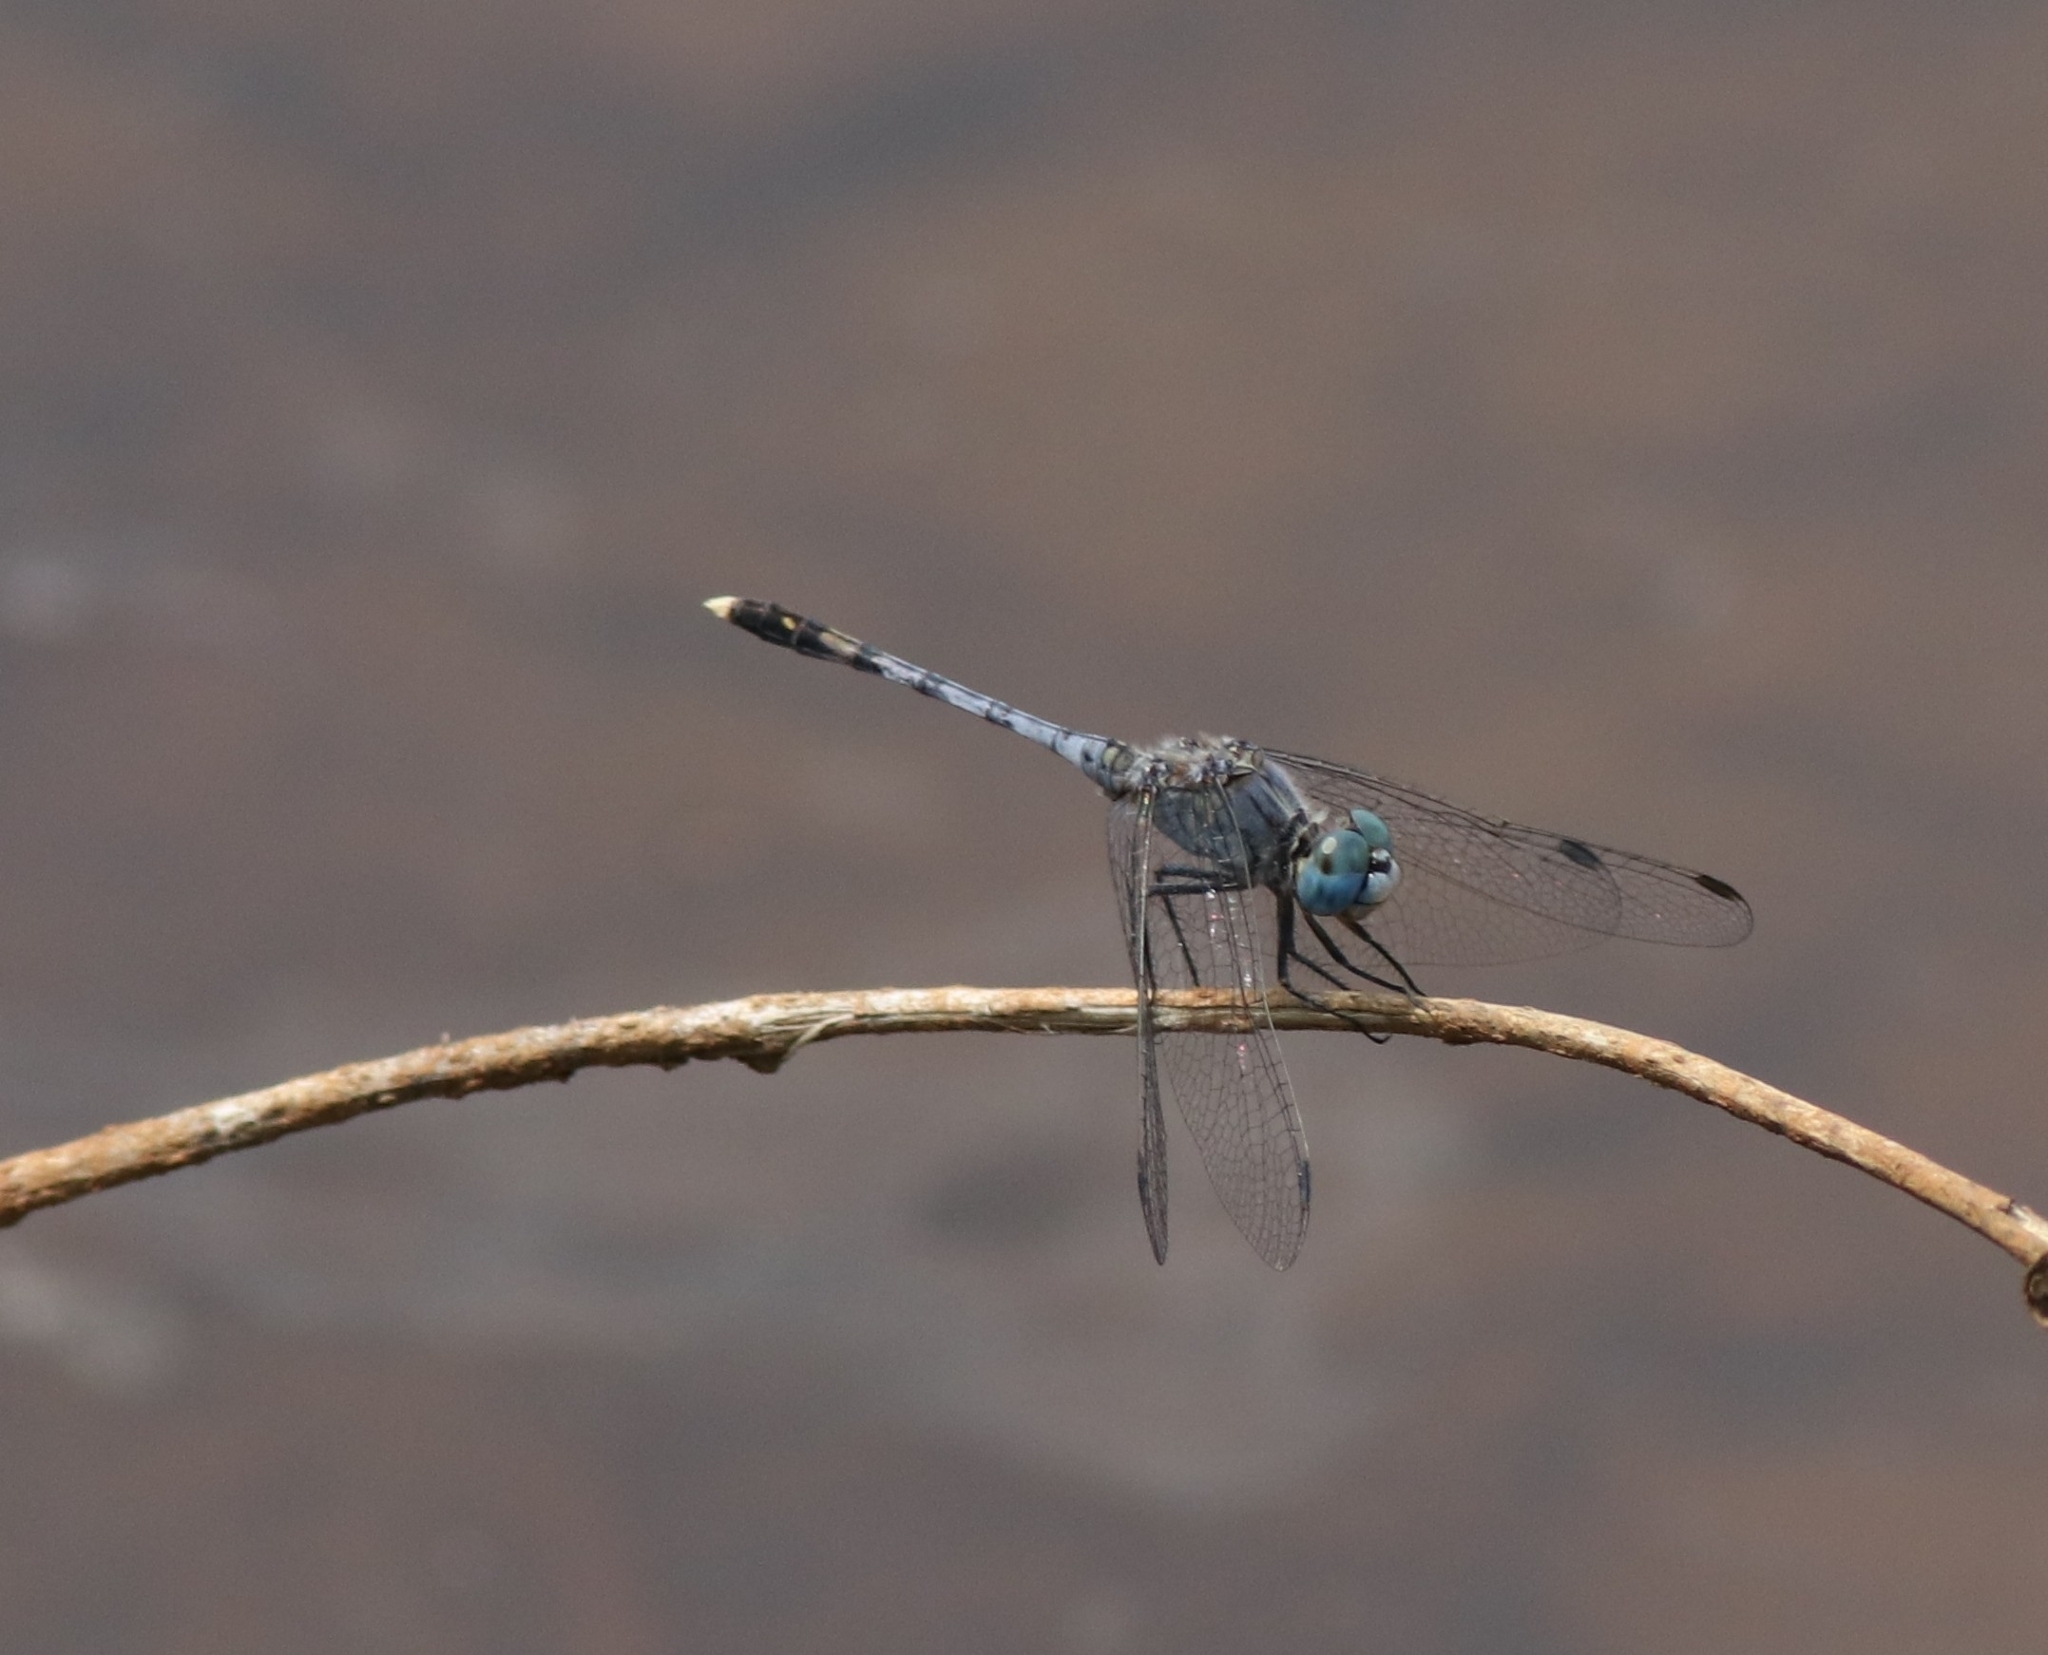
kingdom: Animalia
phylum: Arthropoda
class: Insecta
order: Odonata
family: Libellulidae
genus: Diplacodes
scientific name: Diplacodes trivialis
